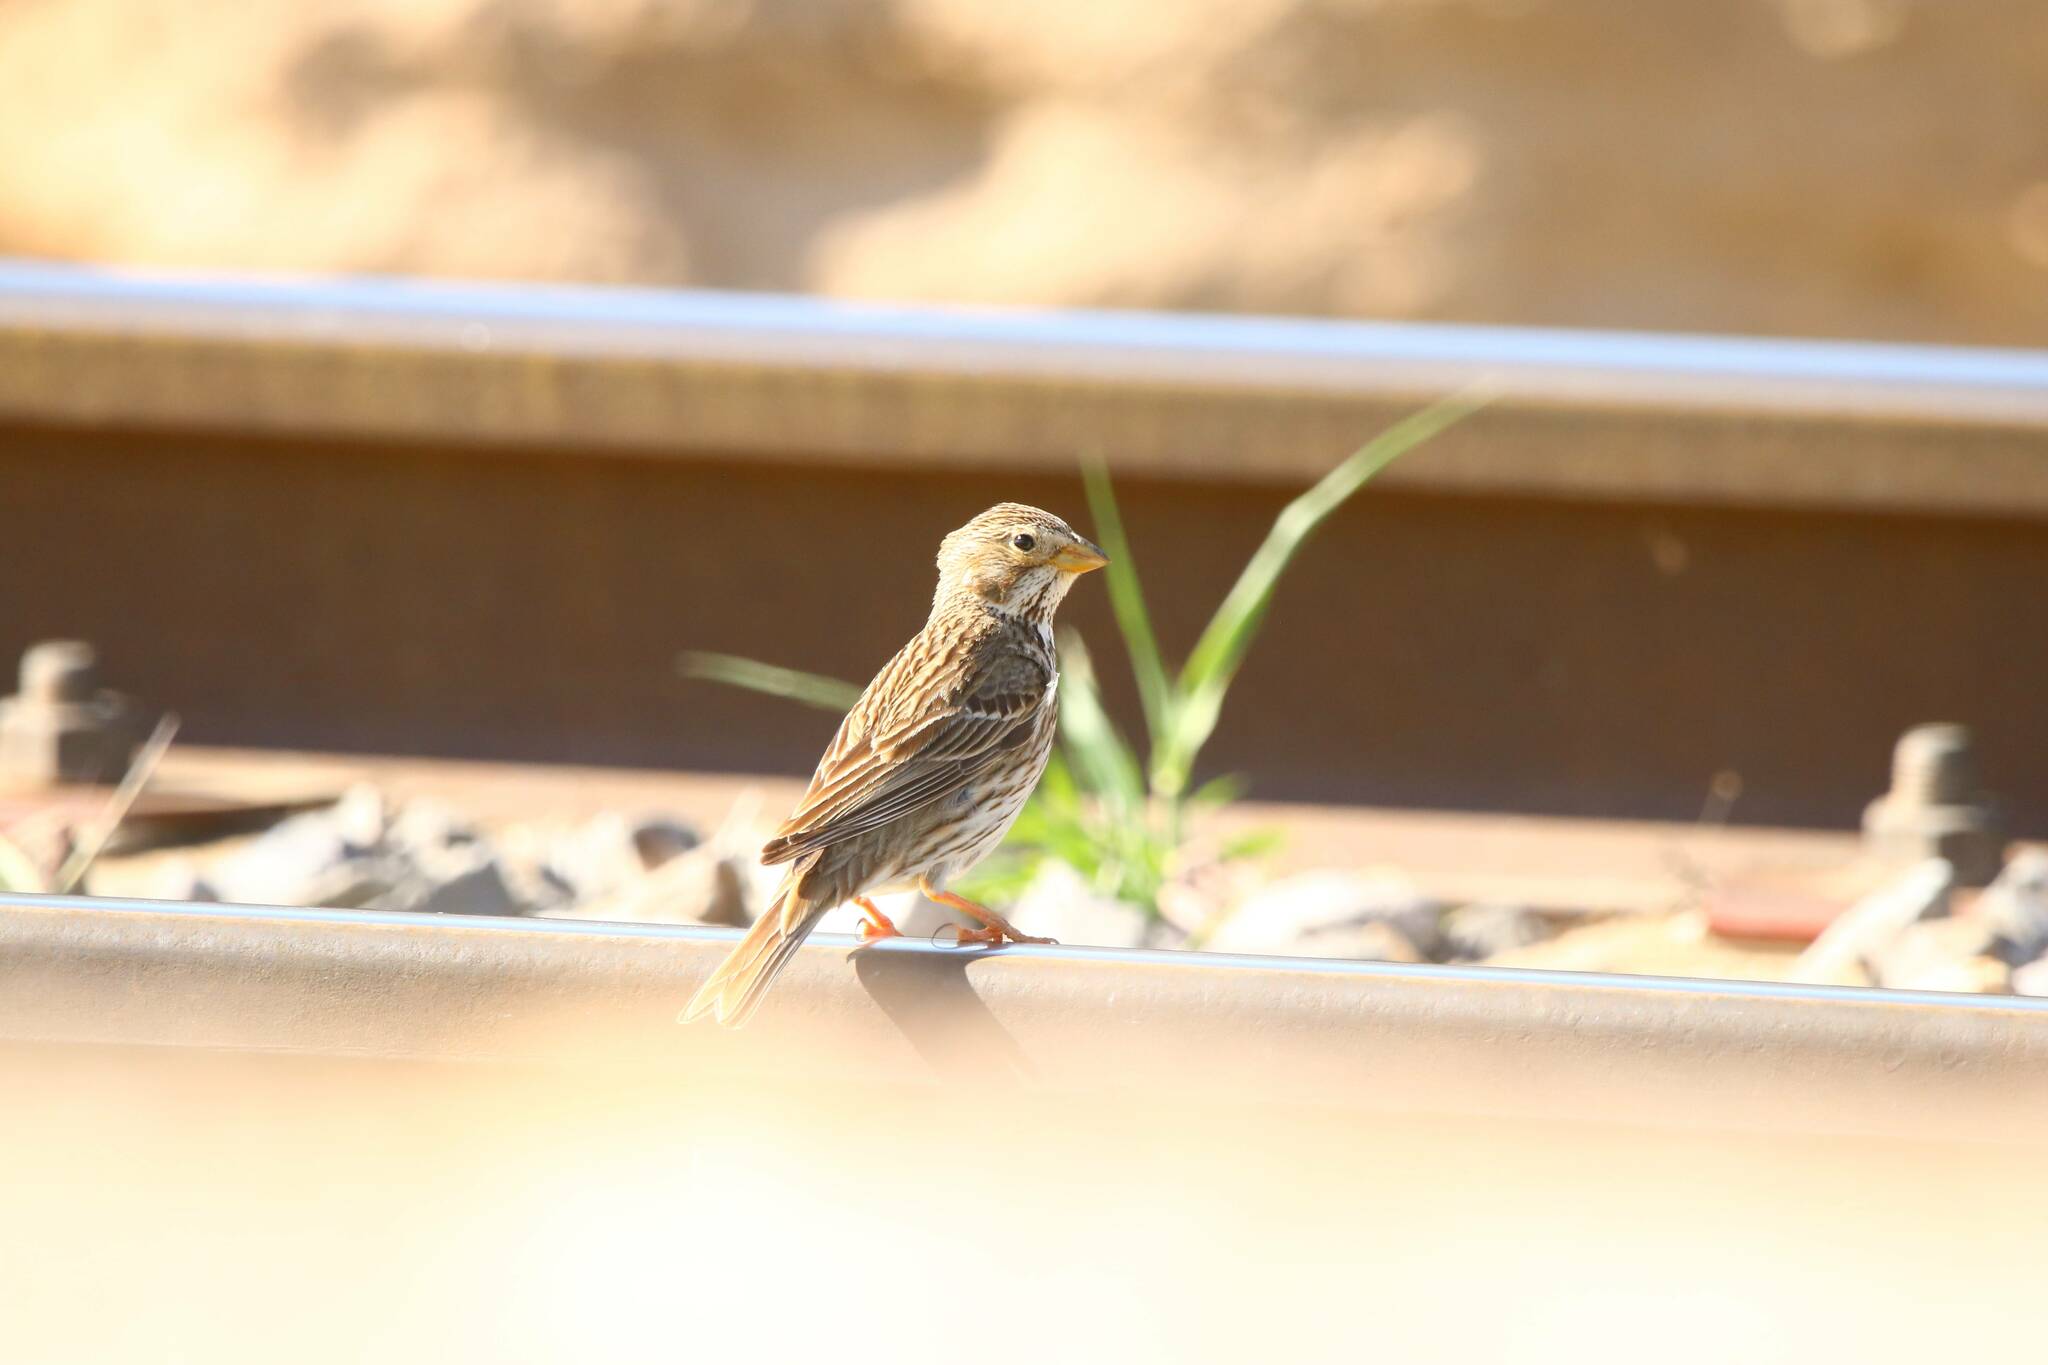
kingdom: Animalia
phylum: Chordata
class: Aves
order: Passeriformes
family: Emberizidae
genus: Emberiza
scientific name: Emberiza calandra
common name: Corn bunting
